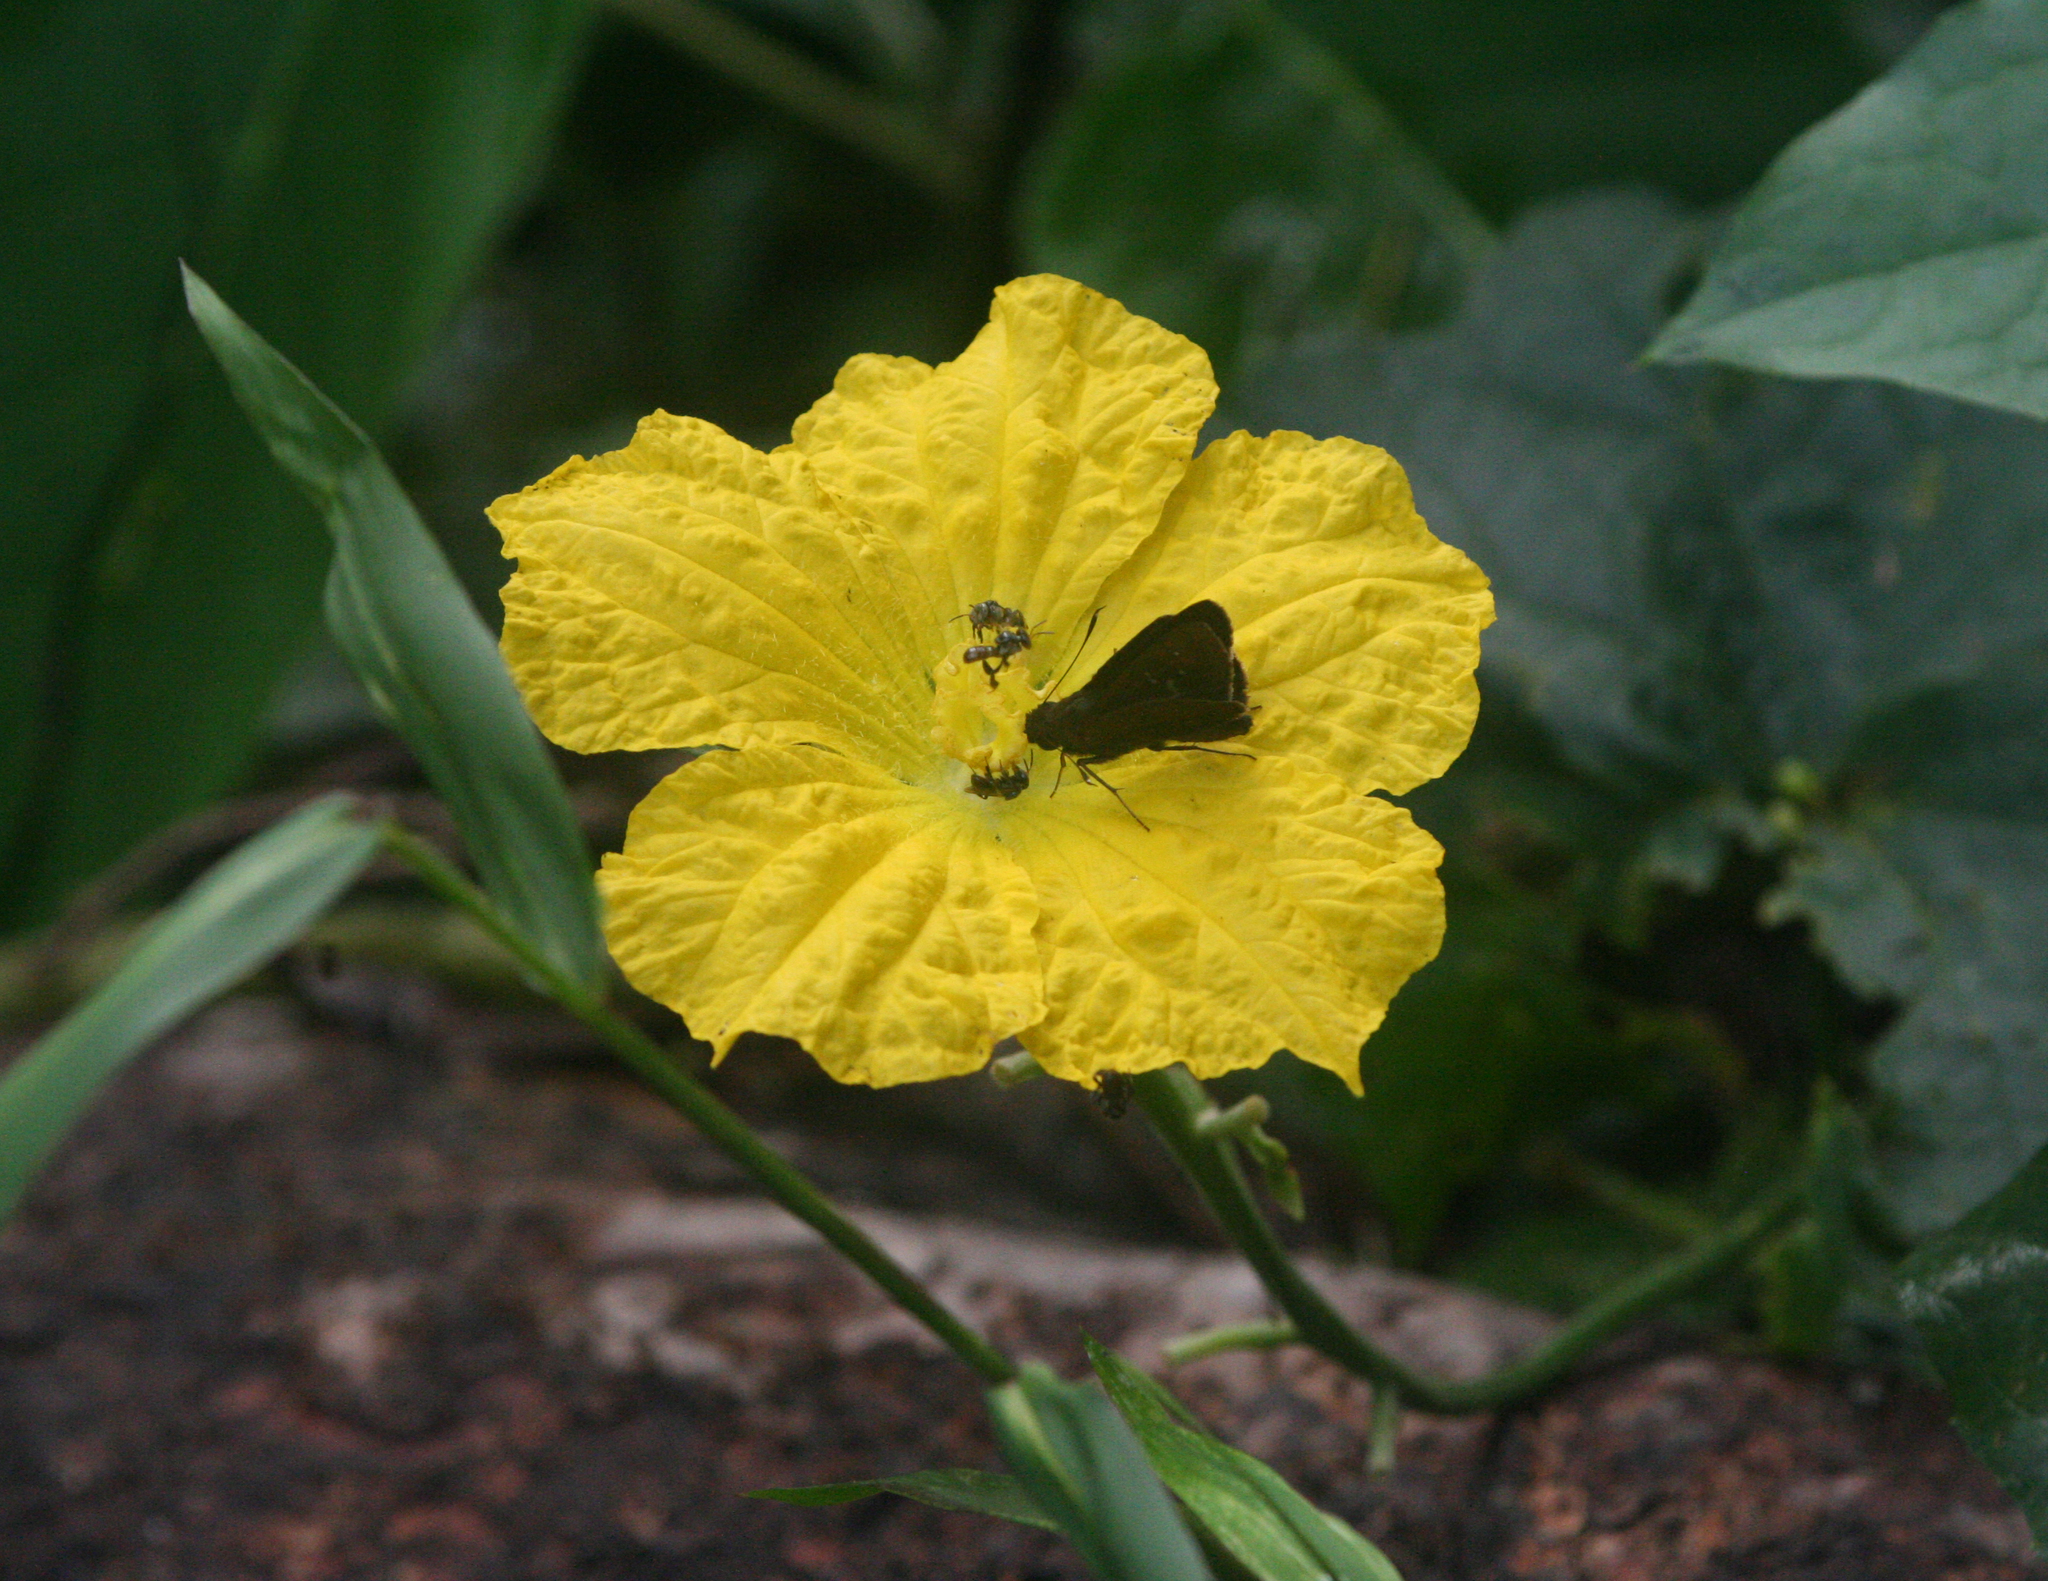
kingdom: Plantae
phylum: Tracheophyta
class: Magnoliopsida
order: Cucurbitales
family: Cucurbitaceae
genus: Luffa
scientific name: Luffa aegyptiaca
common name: Sponge gourd
